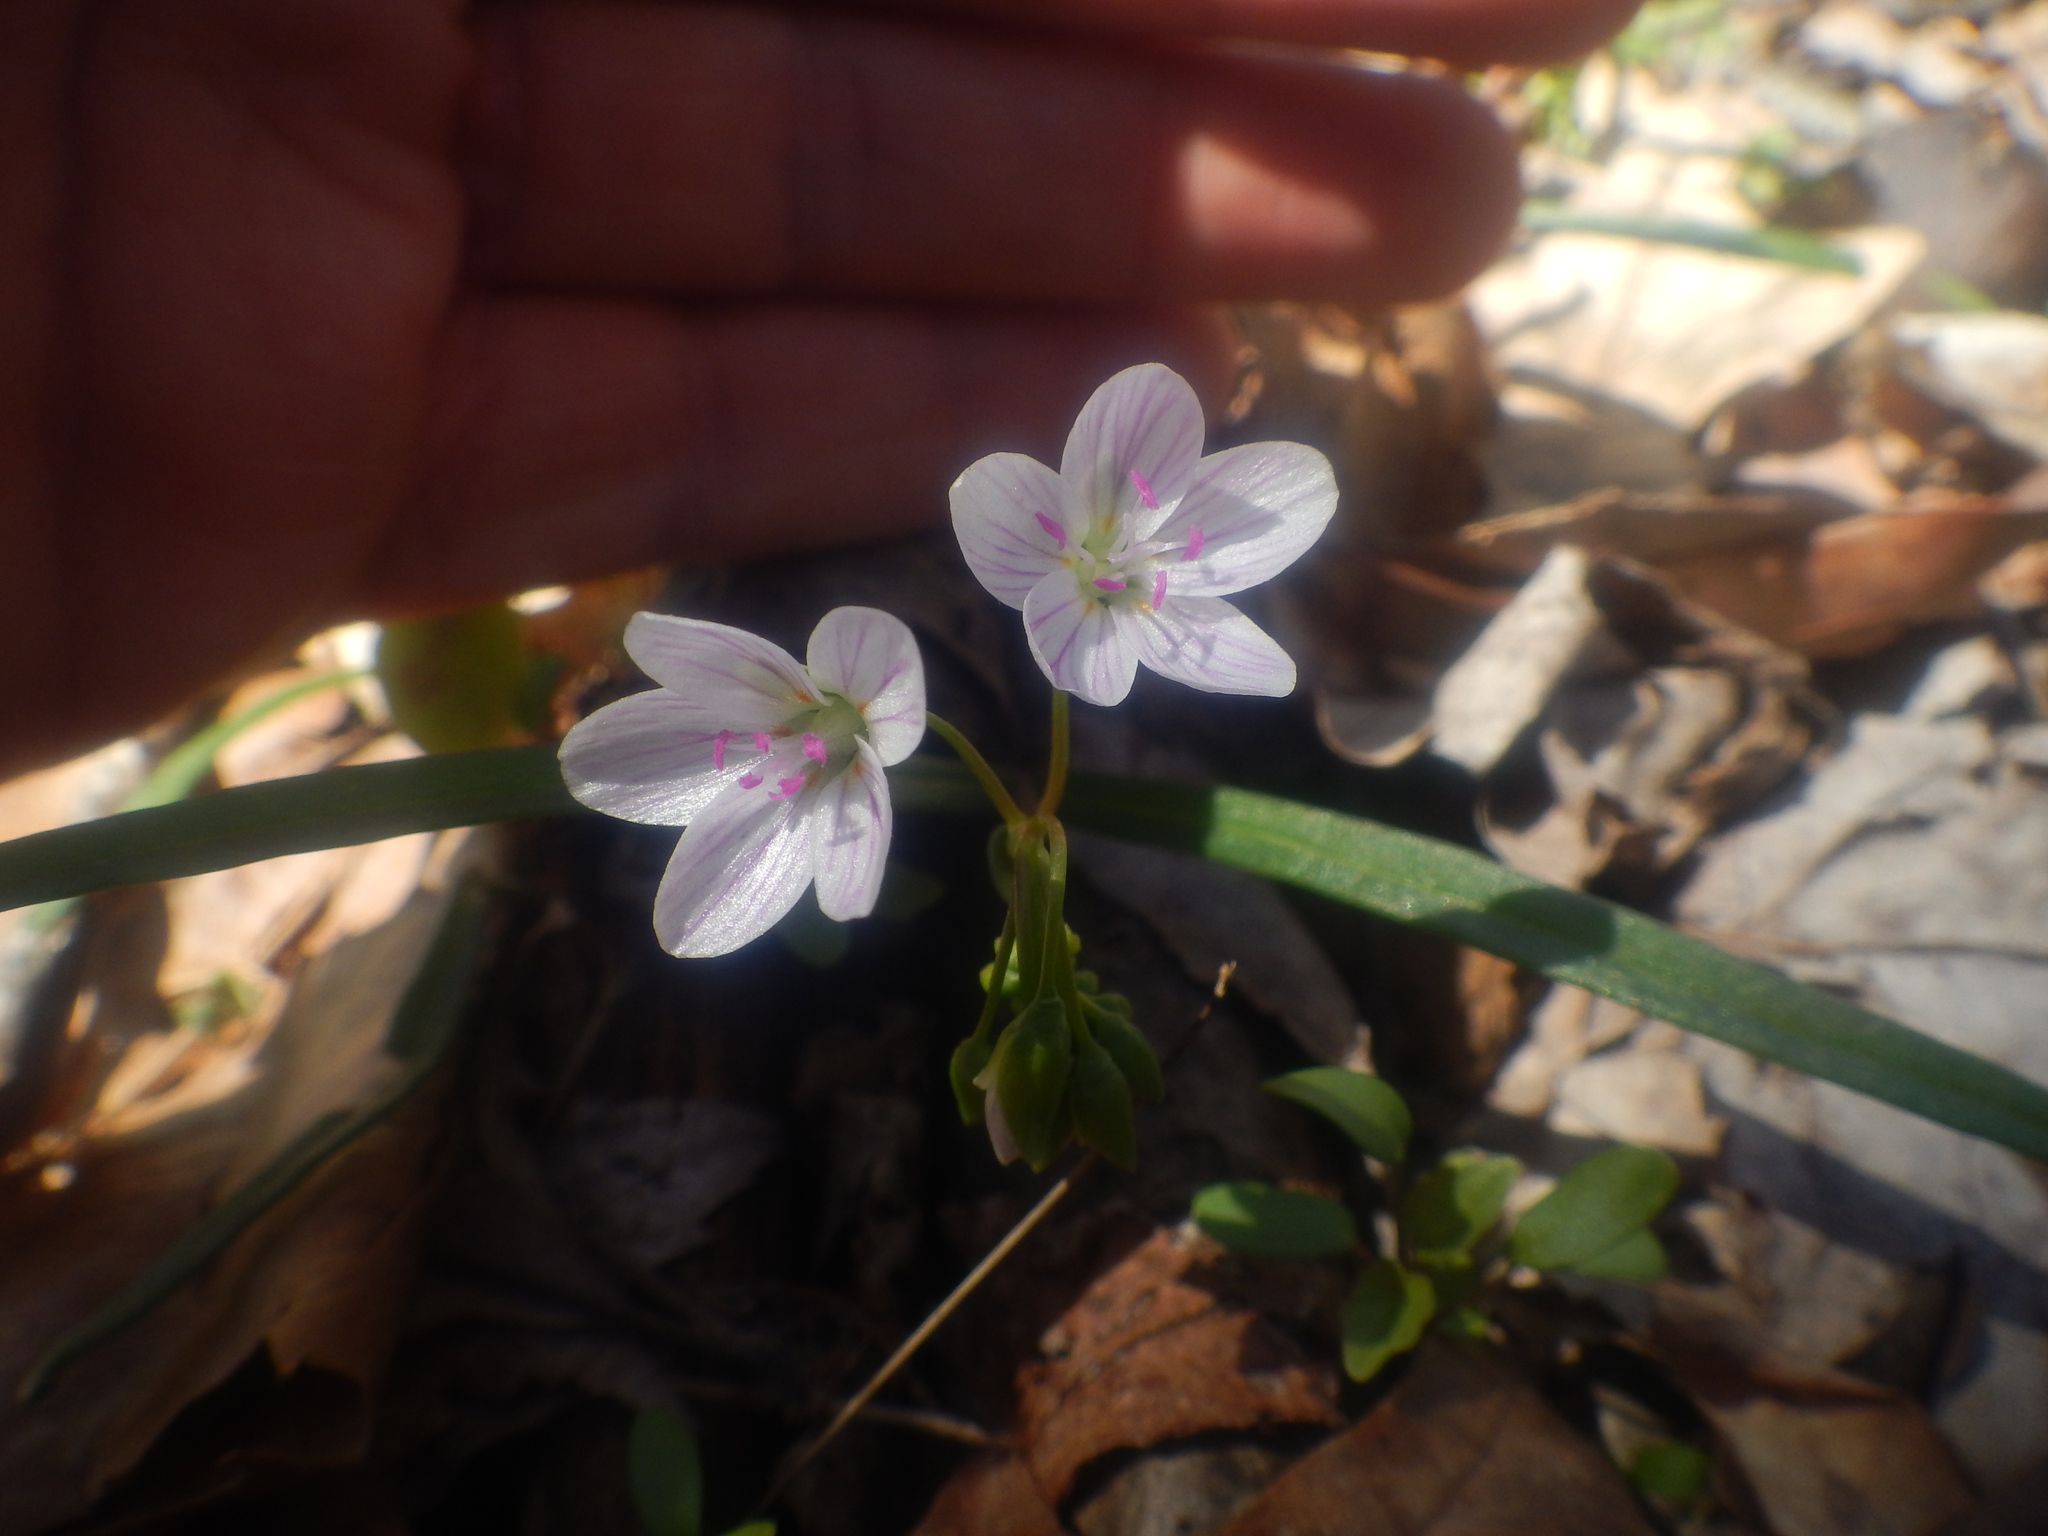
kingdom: Plantae
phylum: Tracheophyta
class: Magnoliopsida
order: Caryophyllales
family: Montiaceae
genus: Claytonia
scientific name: Claytonia virginica
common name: Virginia springbeauty
